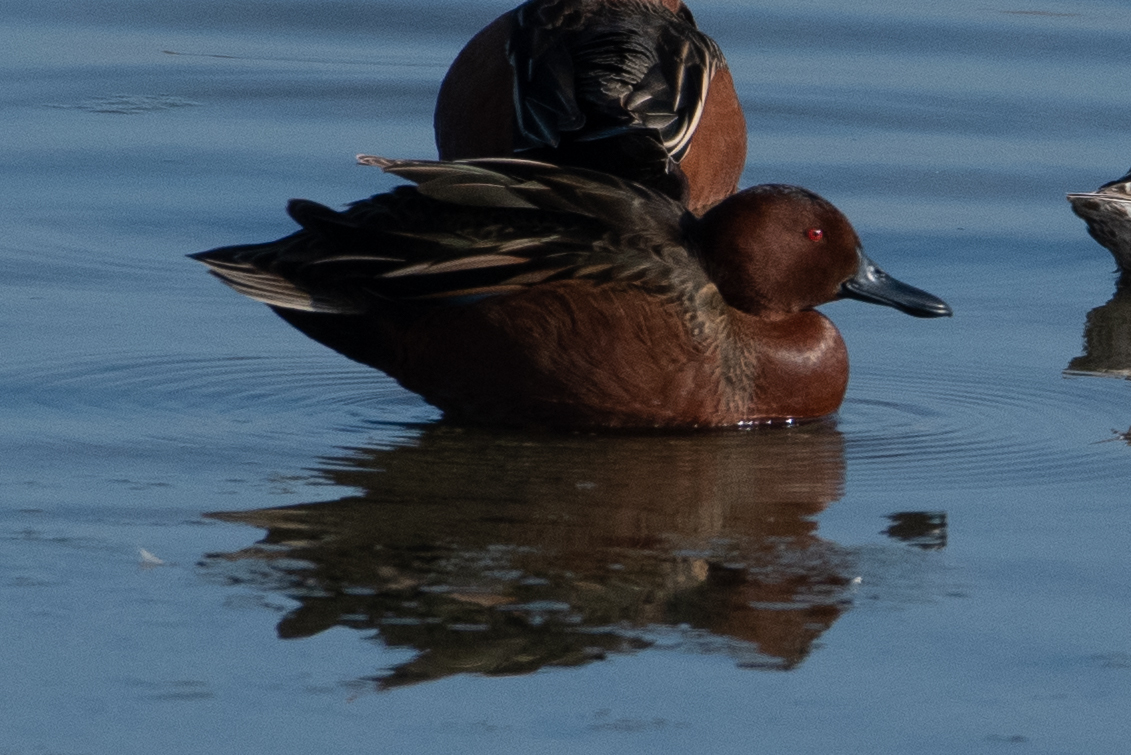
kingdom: Animalia
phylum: Chordata
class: Aves
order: Anseriformes
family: Anatidae
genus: Spatula
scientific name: Spatula cyanoptera
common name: Cinnamon teal
